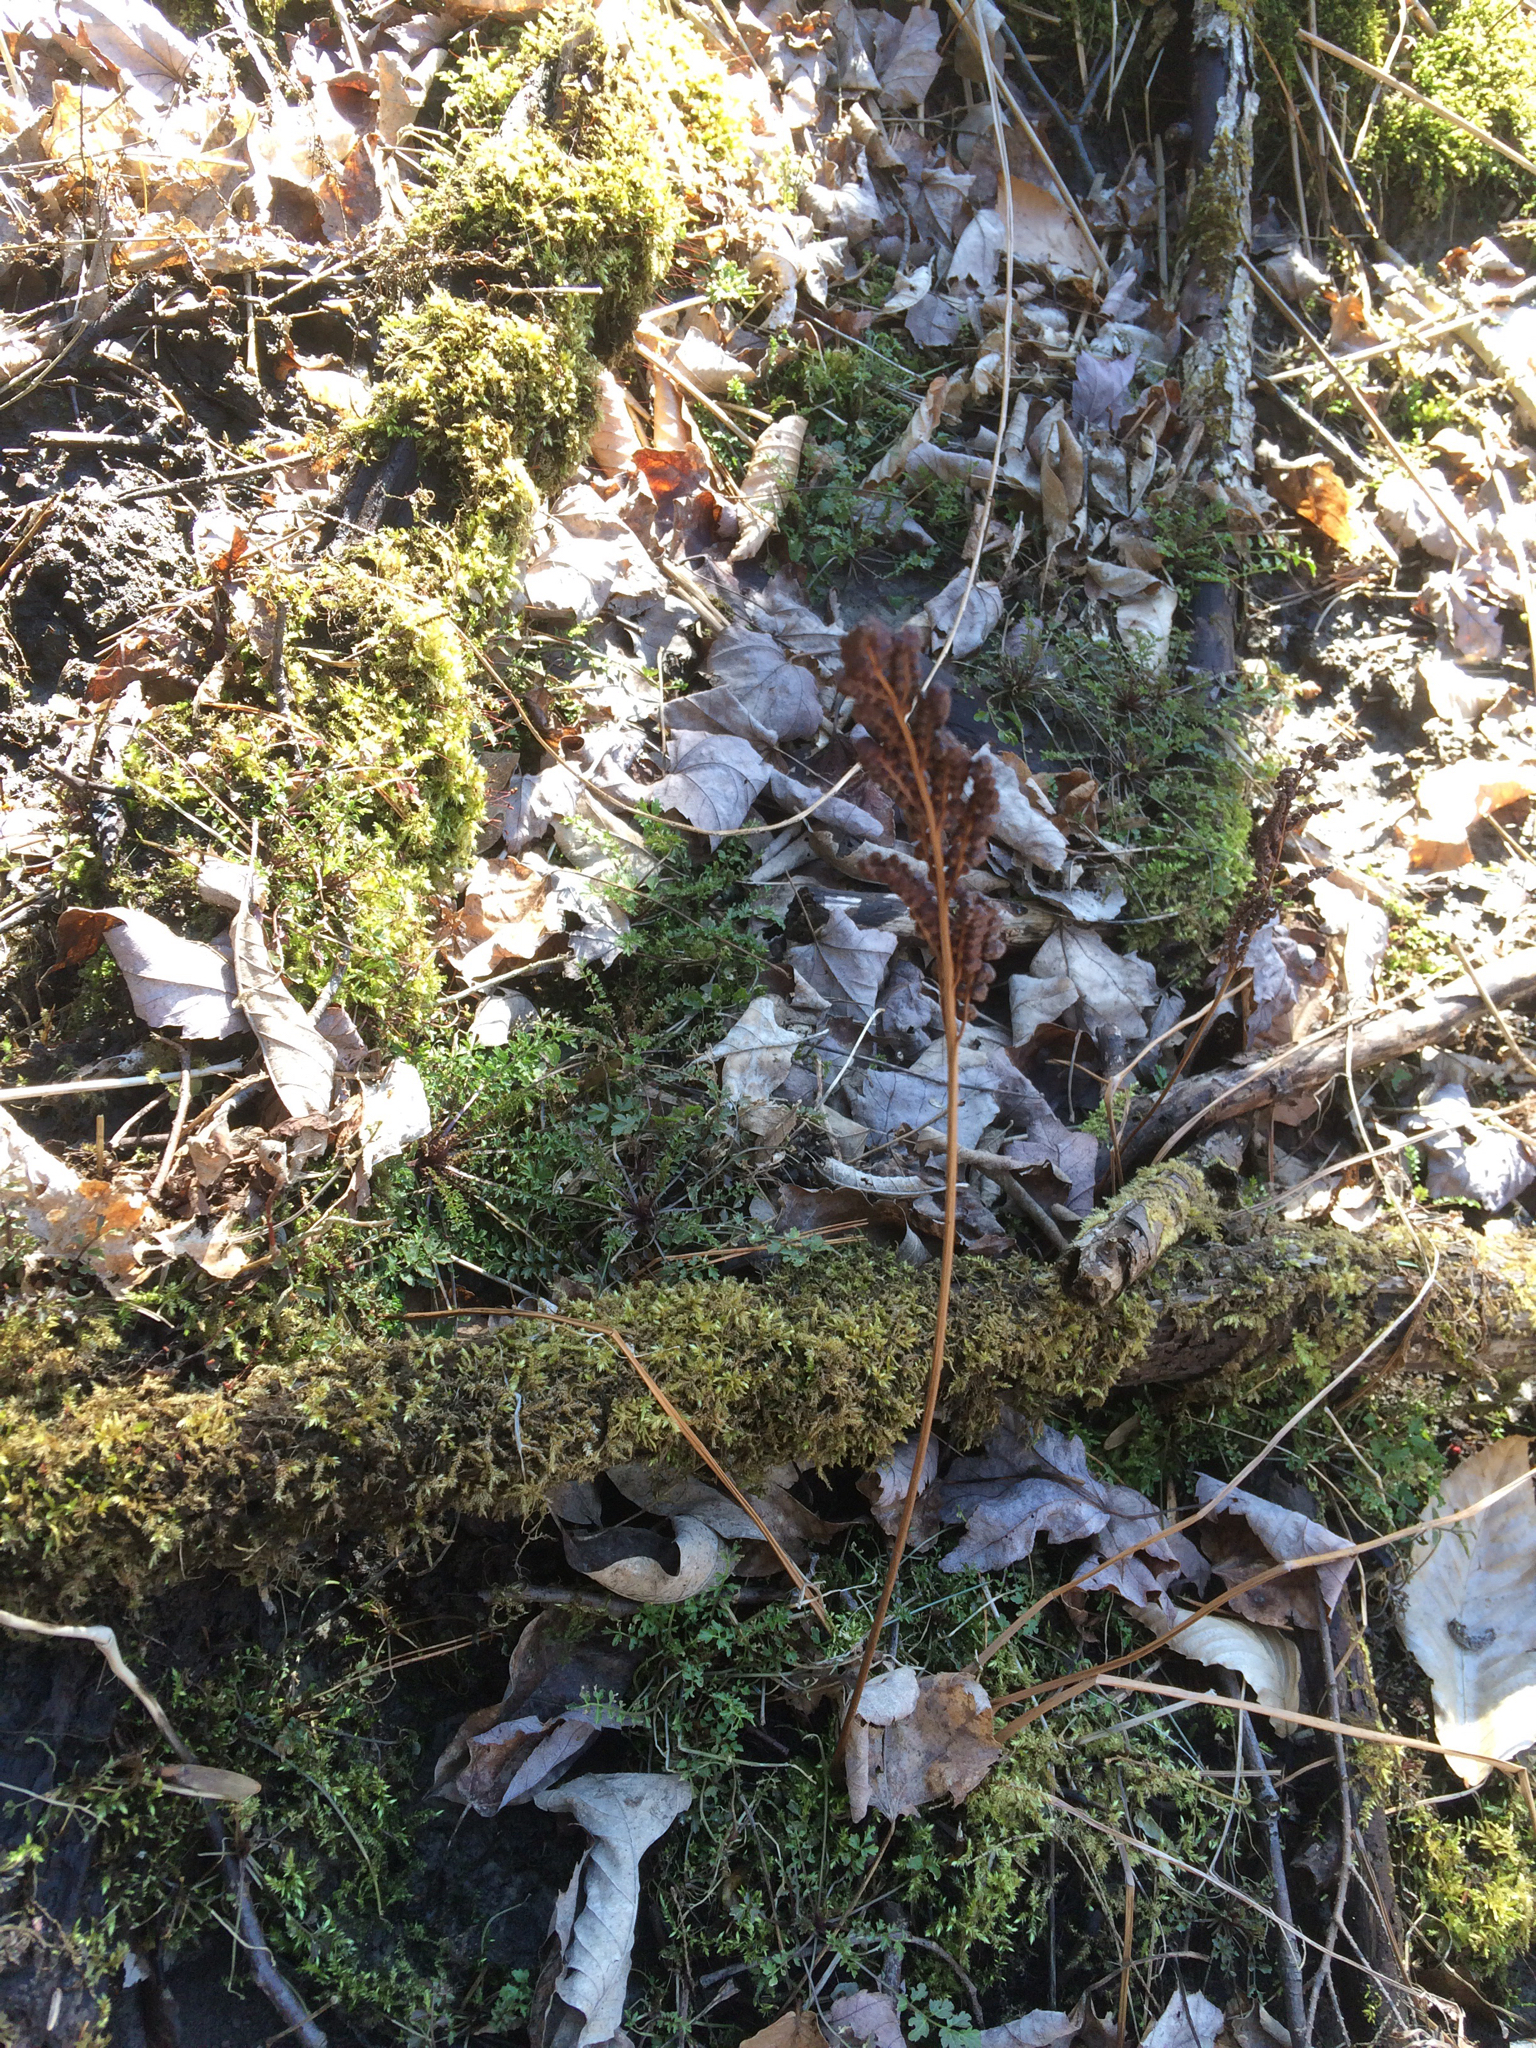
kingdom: Plantae
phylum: Tracheophyta
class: Polypodiopsida
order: Polypodiales
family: Onocleaceae
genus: Onoclea
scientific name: Onoclea sensibilis
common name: Sensitive fern
